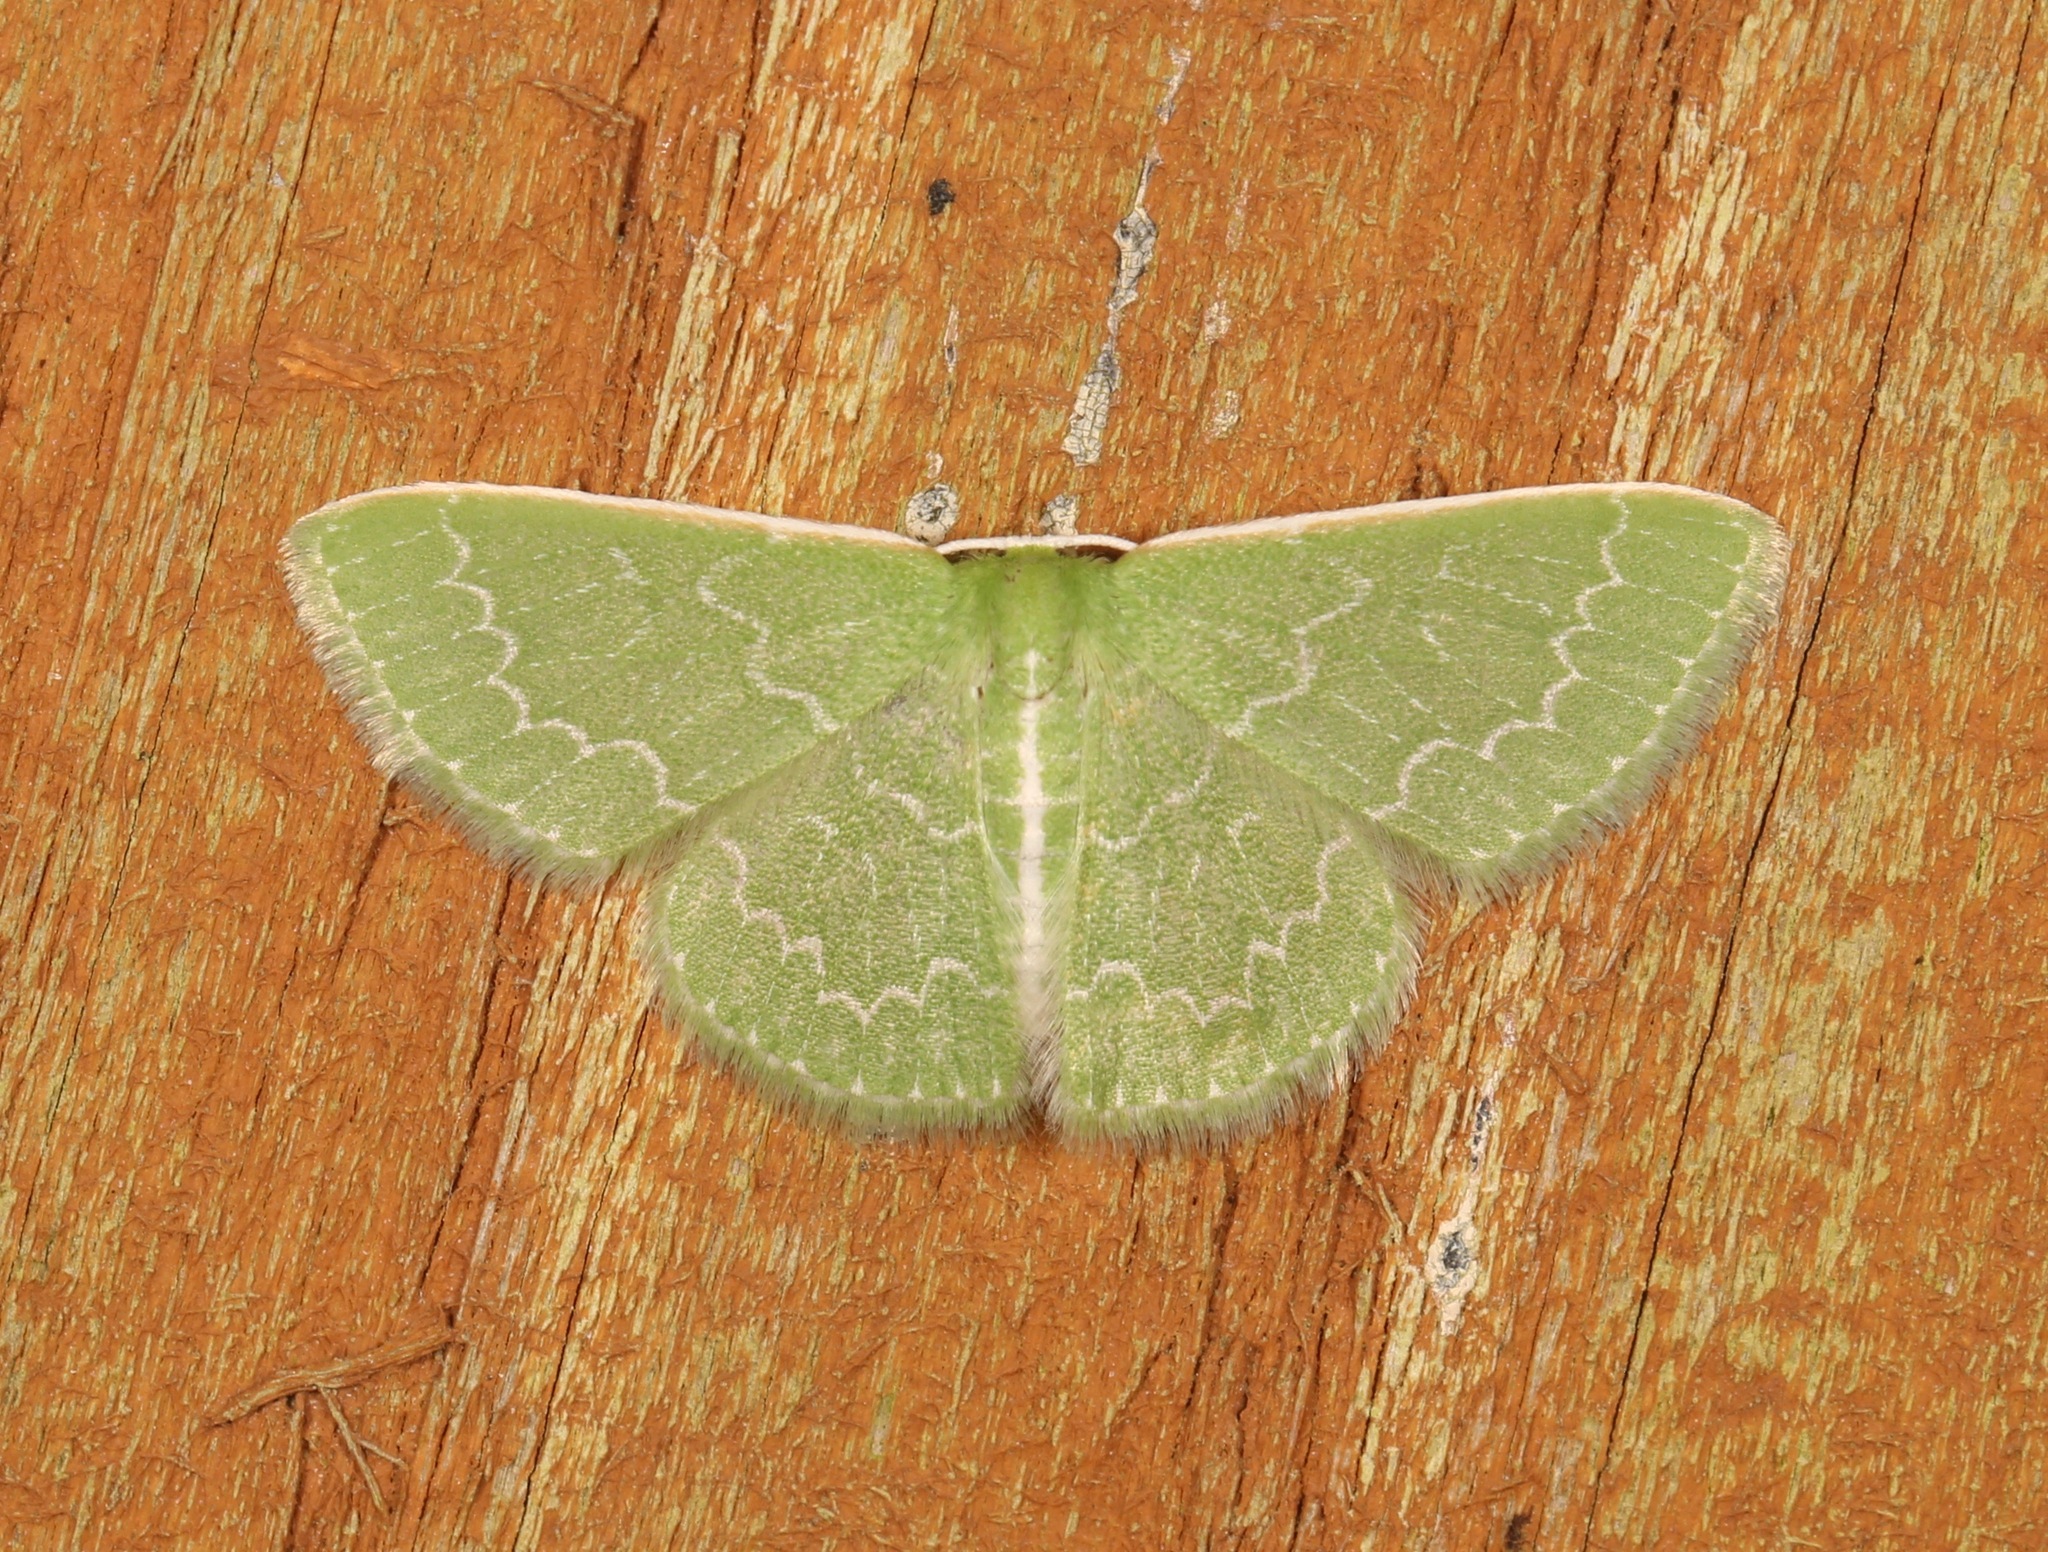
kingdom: Animalia
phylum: Arthropoda
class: Insecta
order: Lepidoptera
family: Geometridae
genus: Synchlora
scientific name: Synchlora frondaria
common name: Southern emerald
